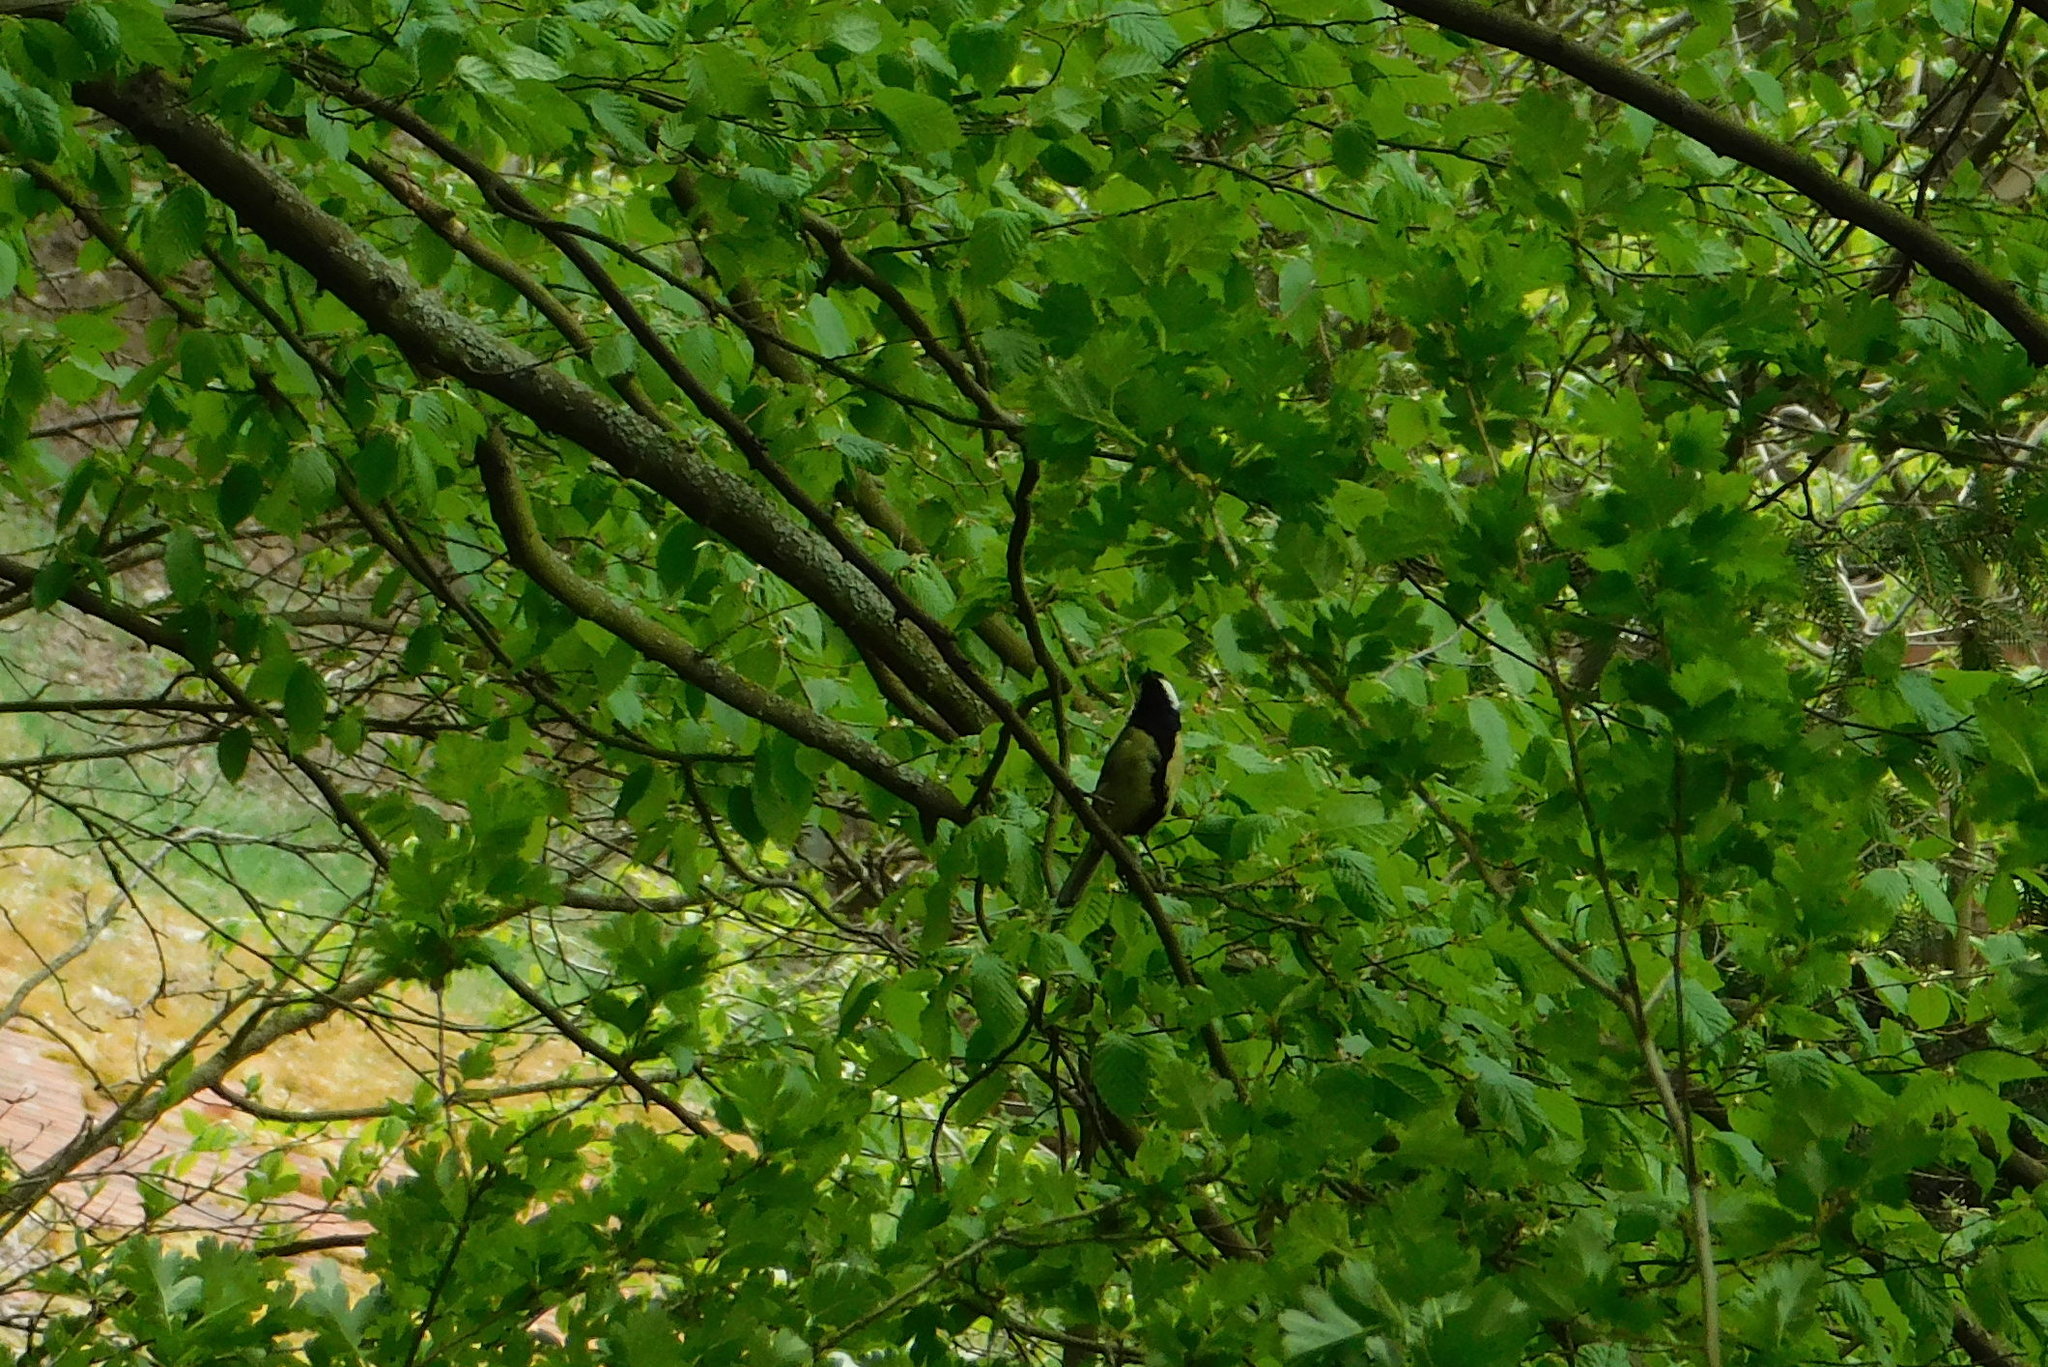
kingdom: Animalia
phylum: Chordata
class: Aves
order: Passeriformes
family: Paridae
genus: Parus
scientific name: Parus major
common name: Great tit
